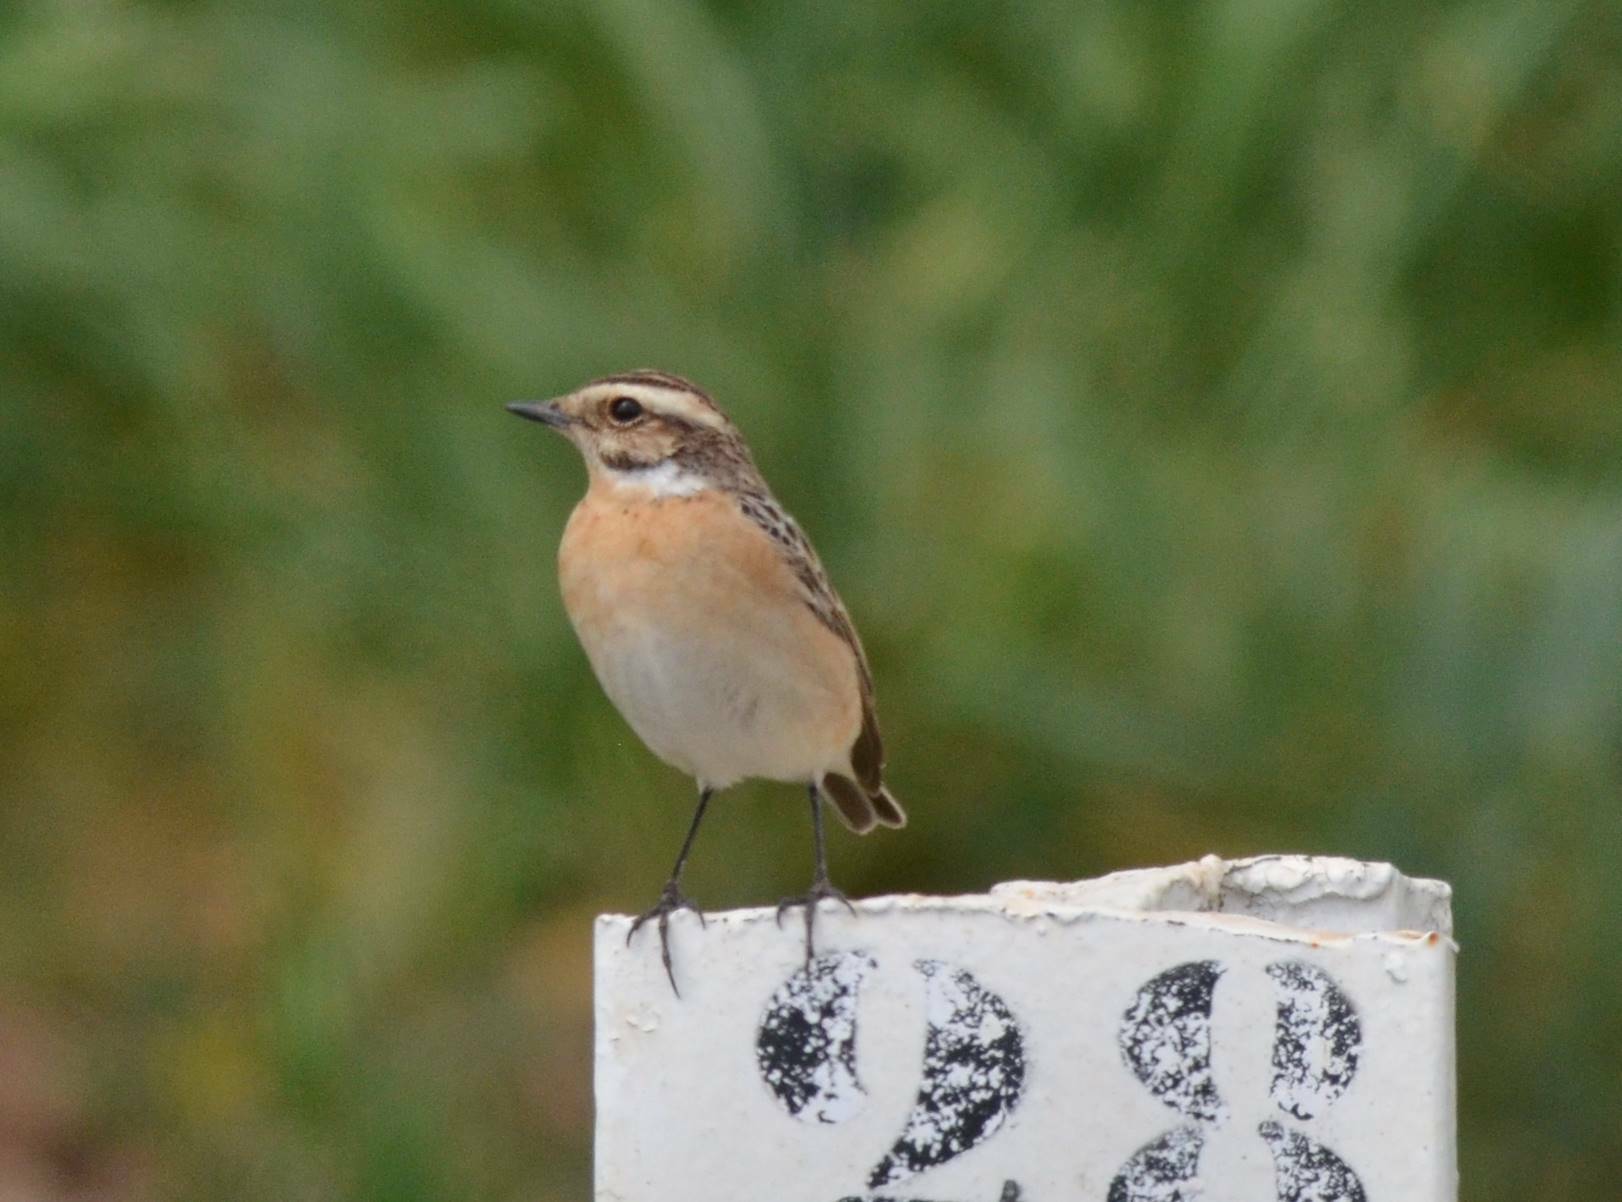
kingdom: Animalia
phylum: Chordata
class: Aves
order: Passeriformes
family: Muscicapidae
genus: Saxicola
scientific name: Saxicola rubetra
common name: Whinchat
